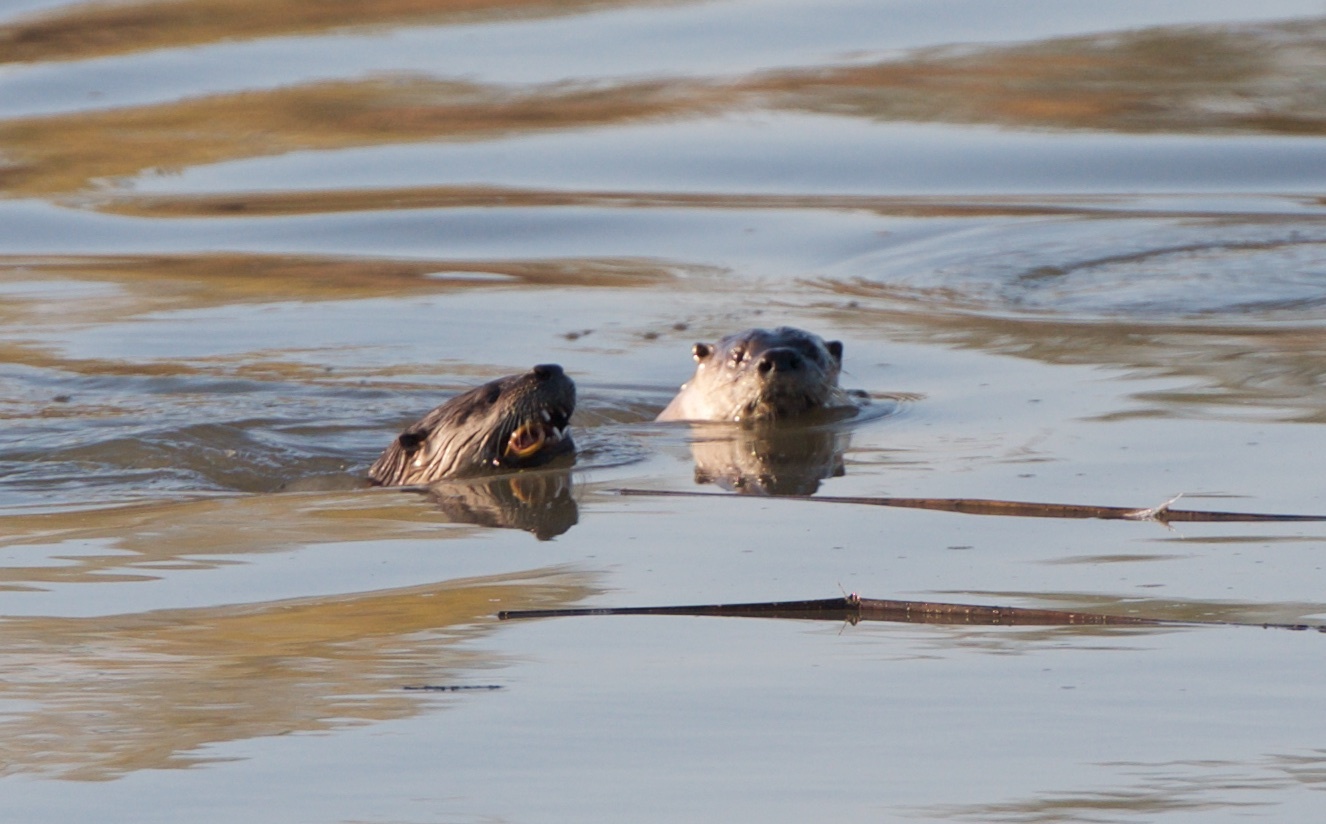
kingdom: Animalia
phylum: Chordata
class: Mammalia
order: Carnivora
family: Mustelidae
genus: Lontra
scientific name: Lontra canadensis
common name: North american river otter
